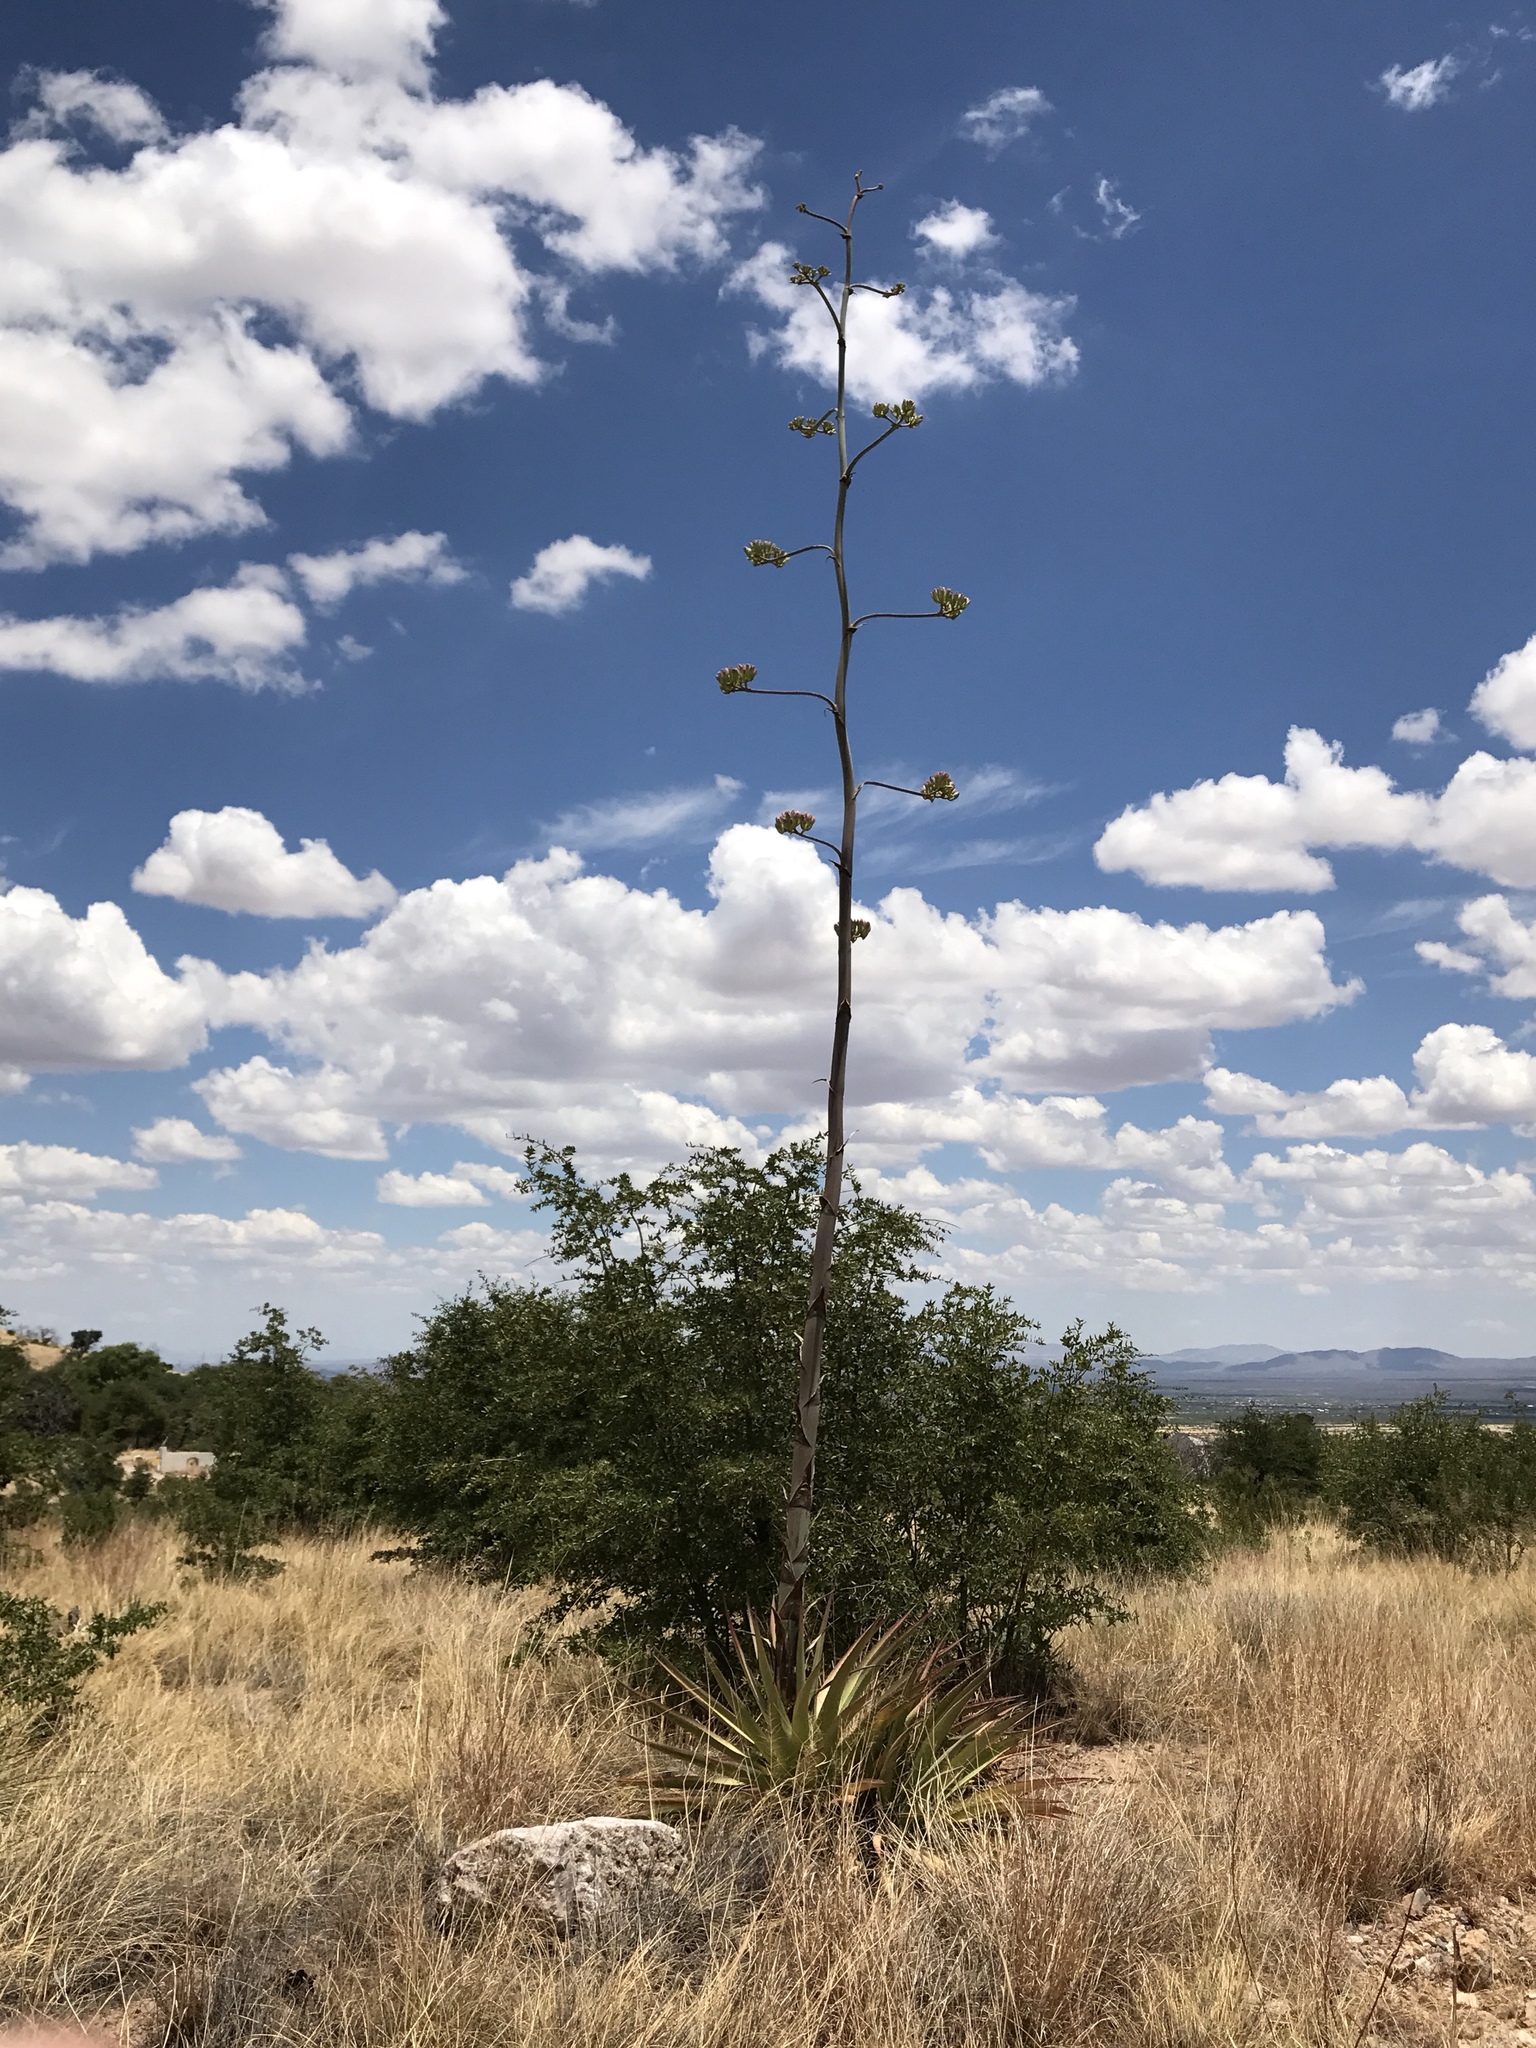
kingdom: Plantae
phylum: Tracheophyta
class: Liliopsida
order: Asparagales
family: Asparagaceae
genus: Agave
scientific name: Agave palmeri
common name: Palmer agave
